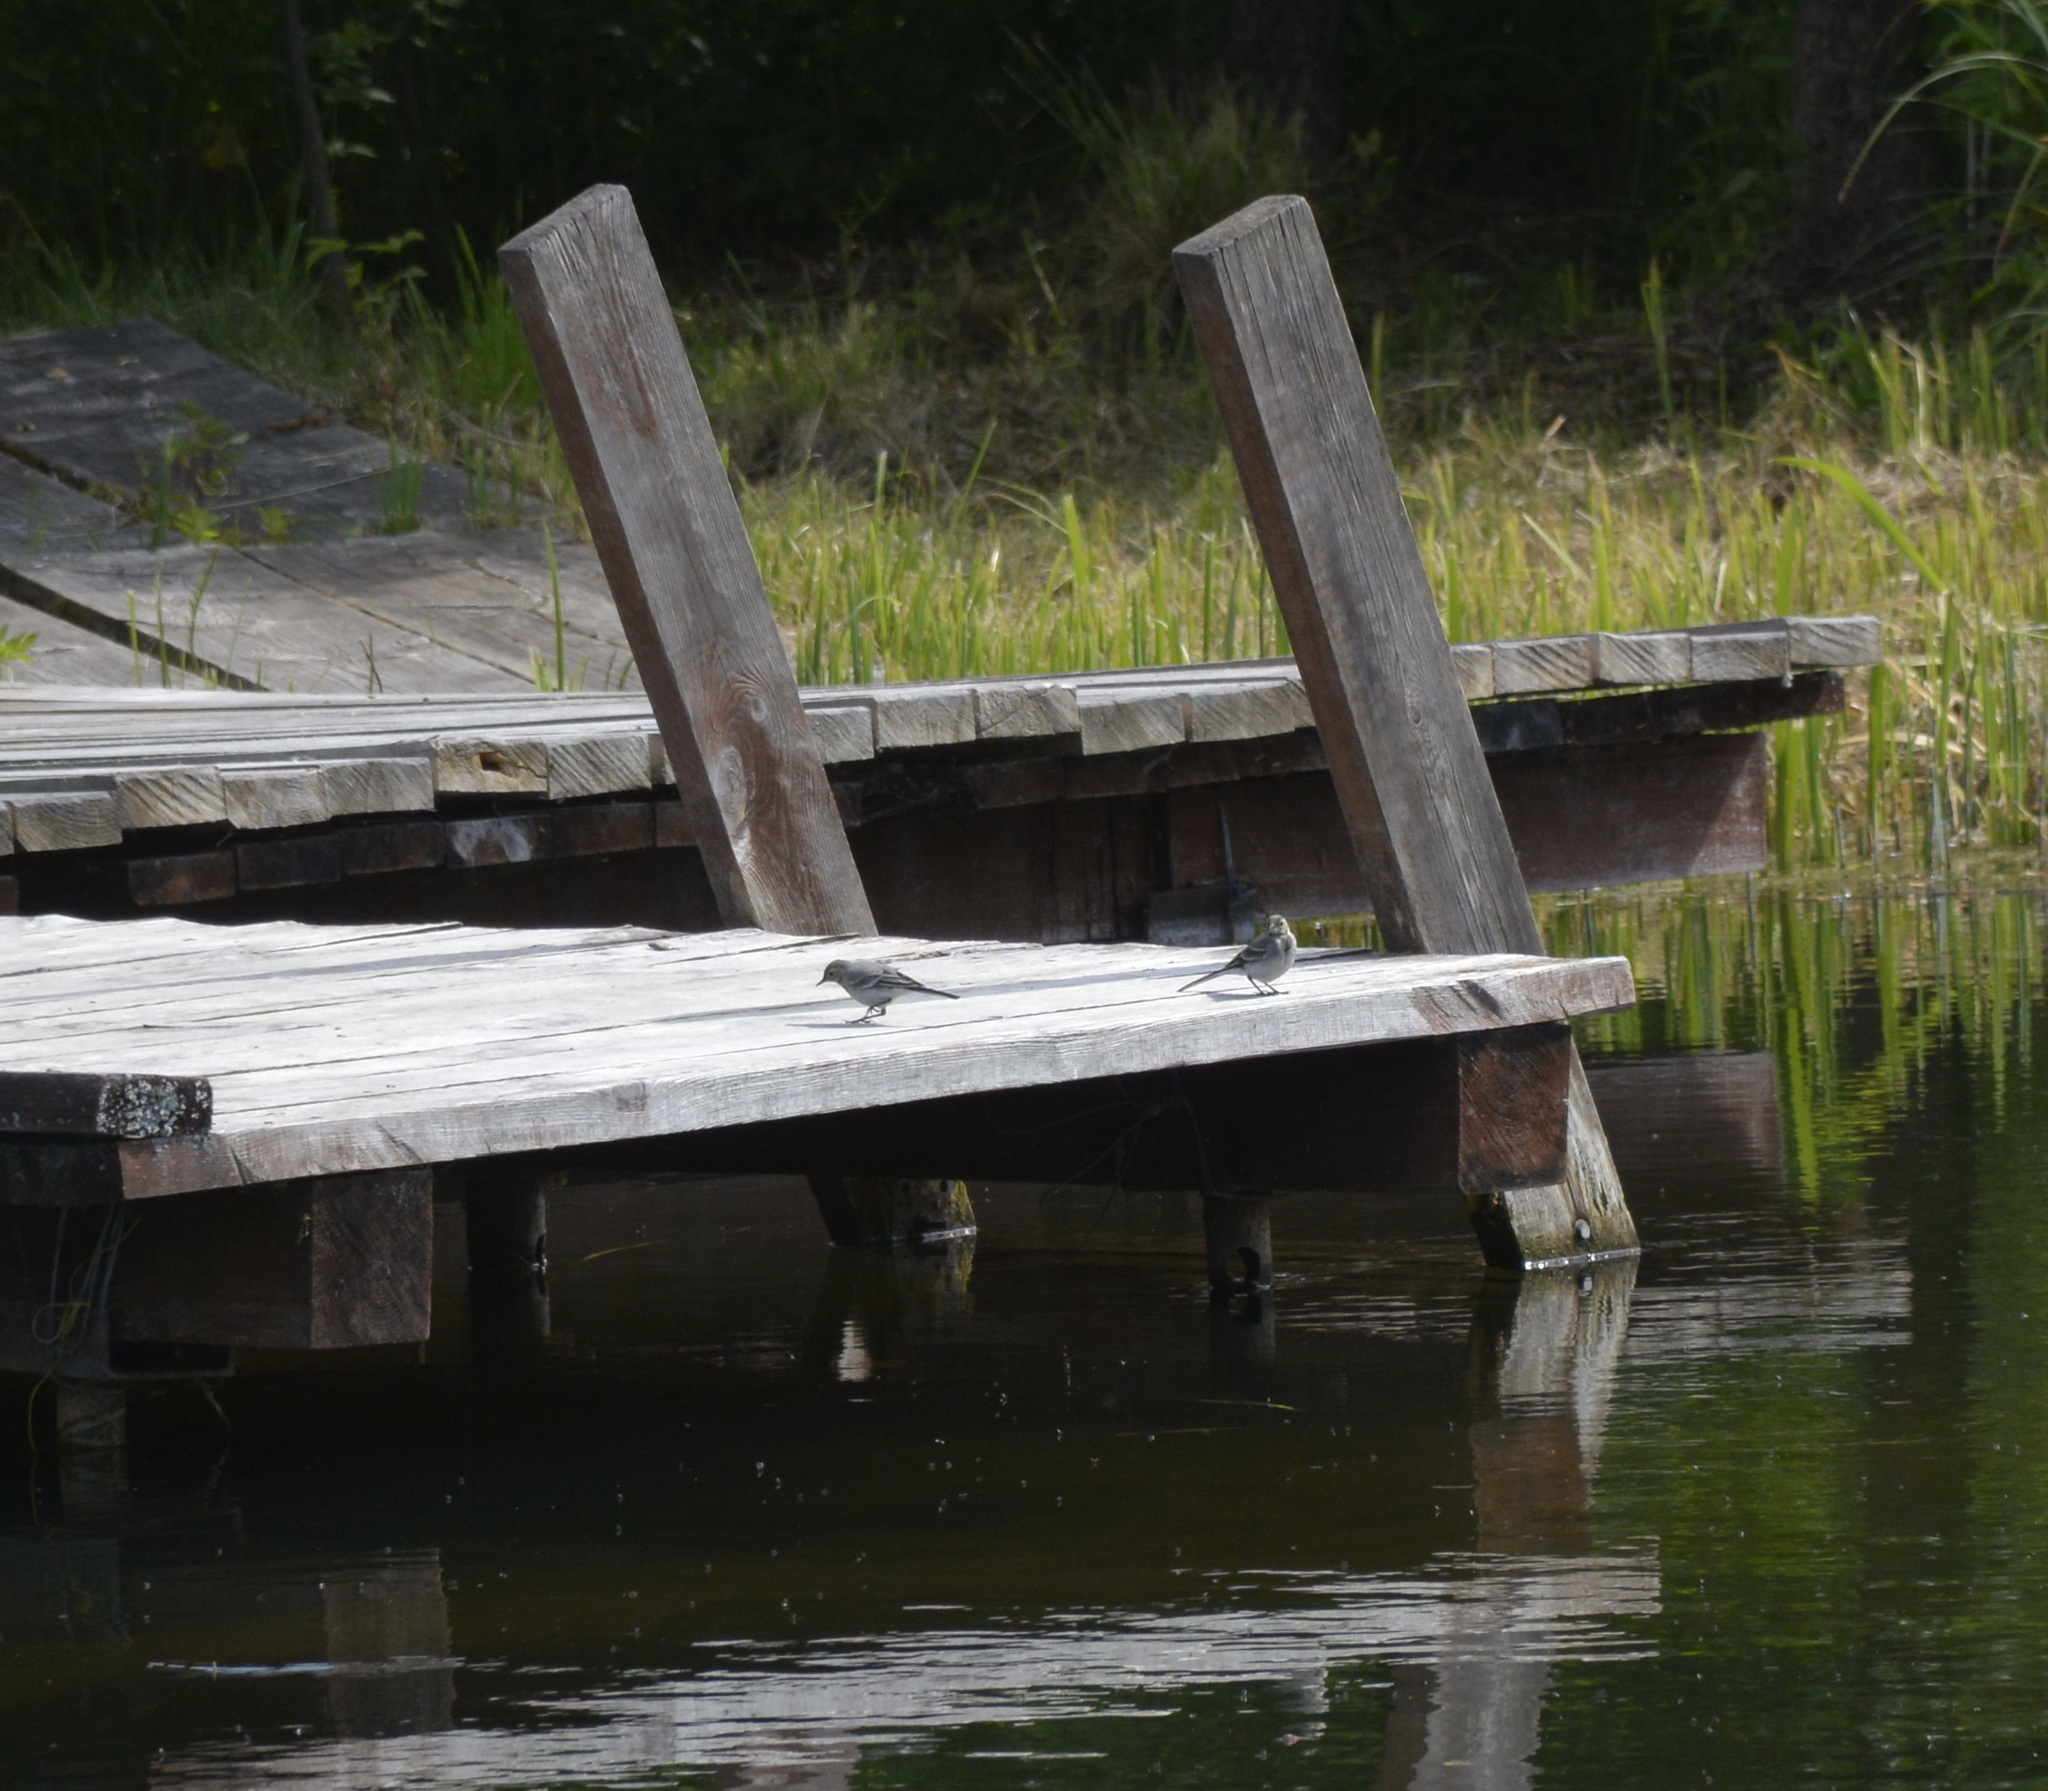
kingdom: Animalia
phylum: Chordata
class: Aves
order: Passeriformes
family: Motacillidae
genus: Motacilla
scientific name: Motacilla alba
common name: White wagtail
